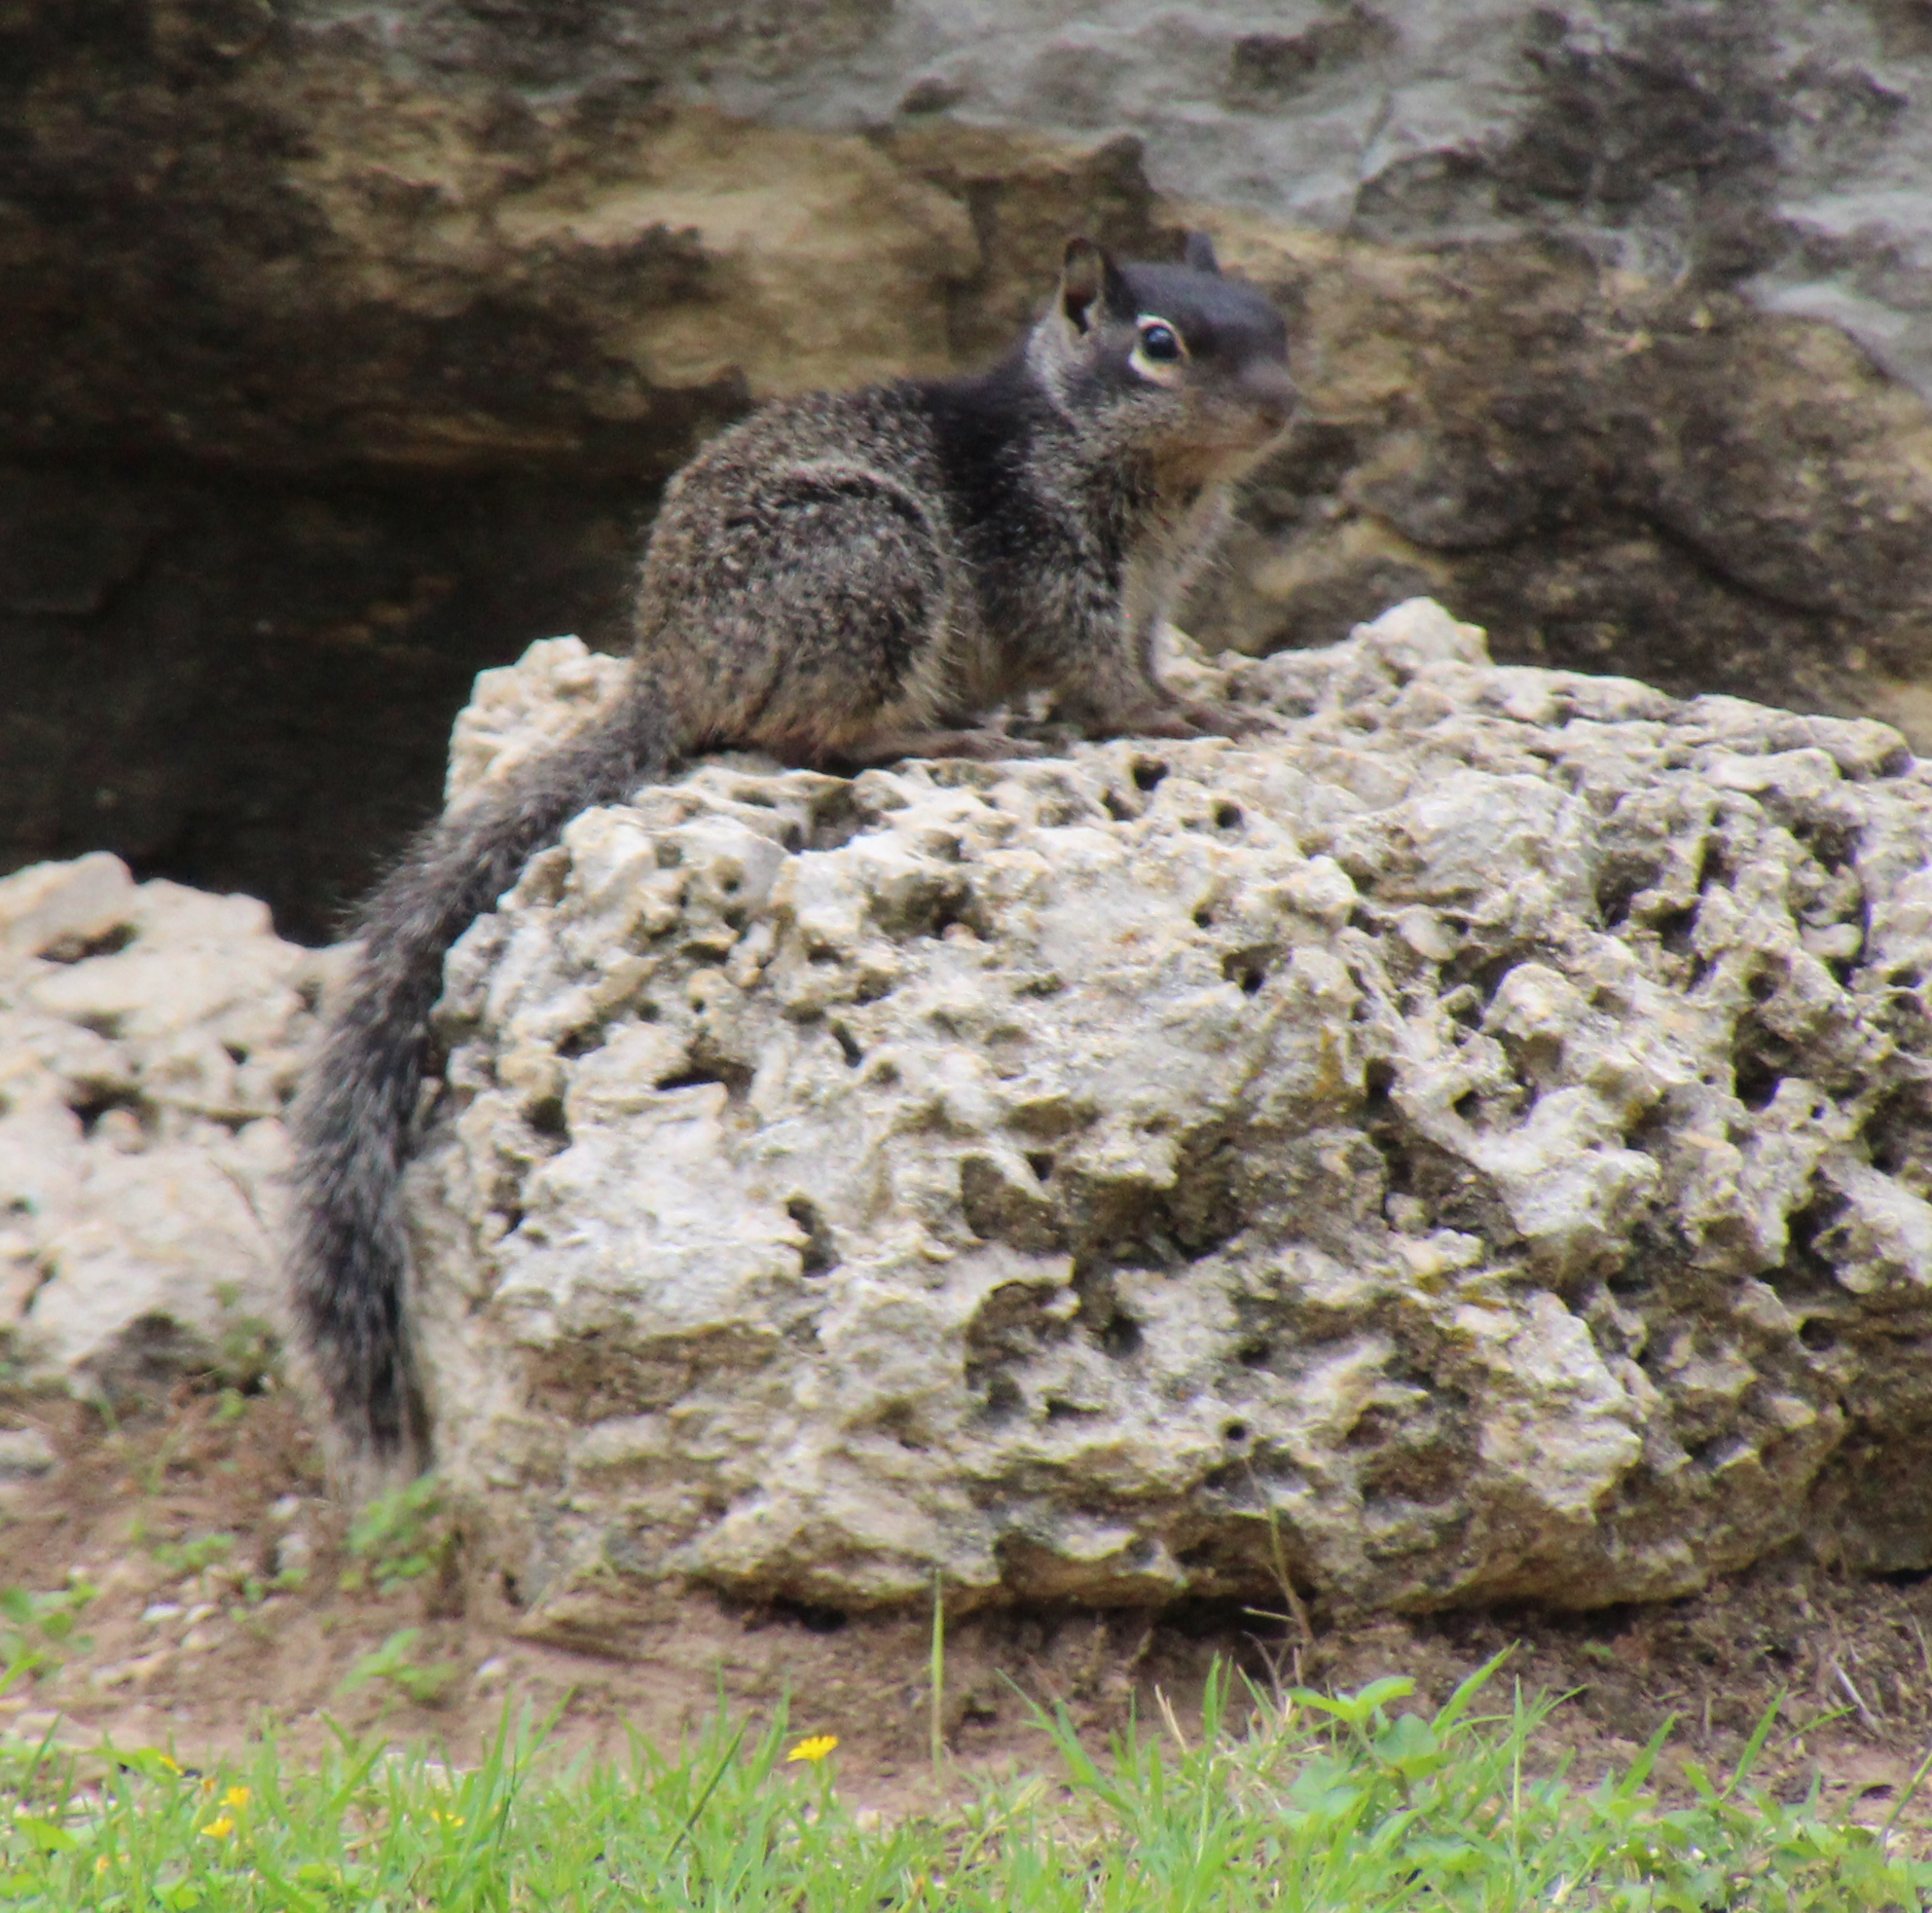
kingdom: Animalia
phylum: Chordata
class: Mammalia
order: Rodentia
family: Sciuridae
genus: Otospermophilus
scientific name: Otospermophilus variegatus
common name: Rock squirrel
